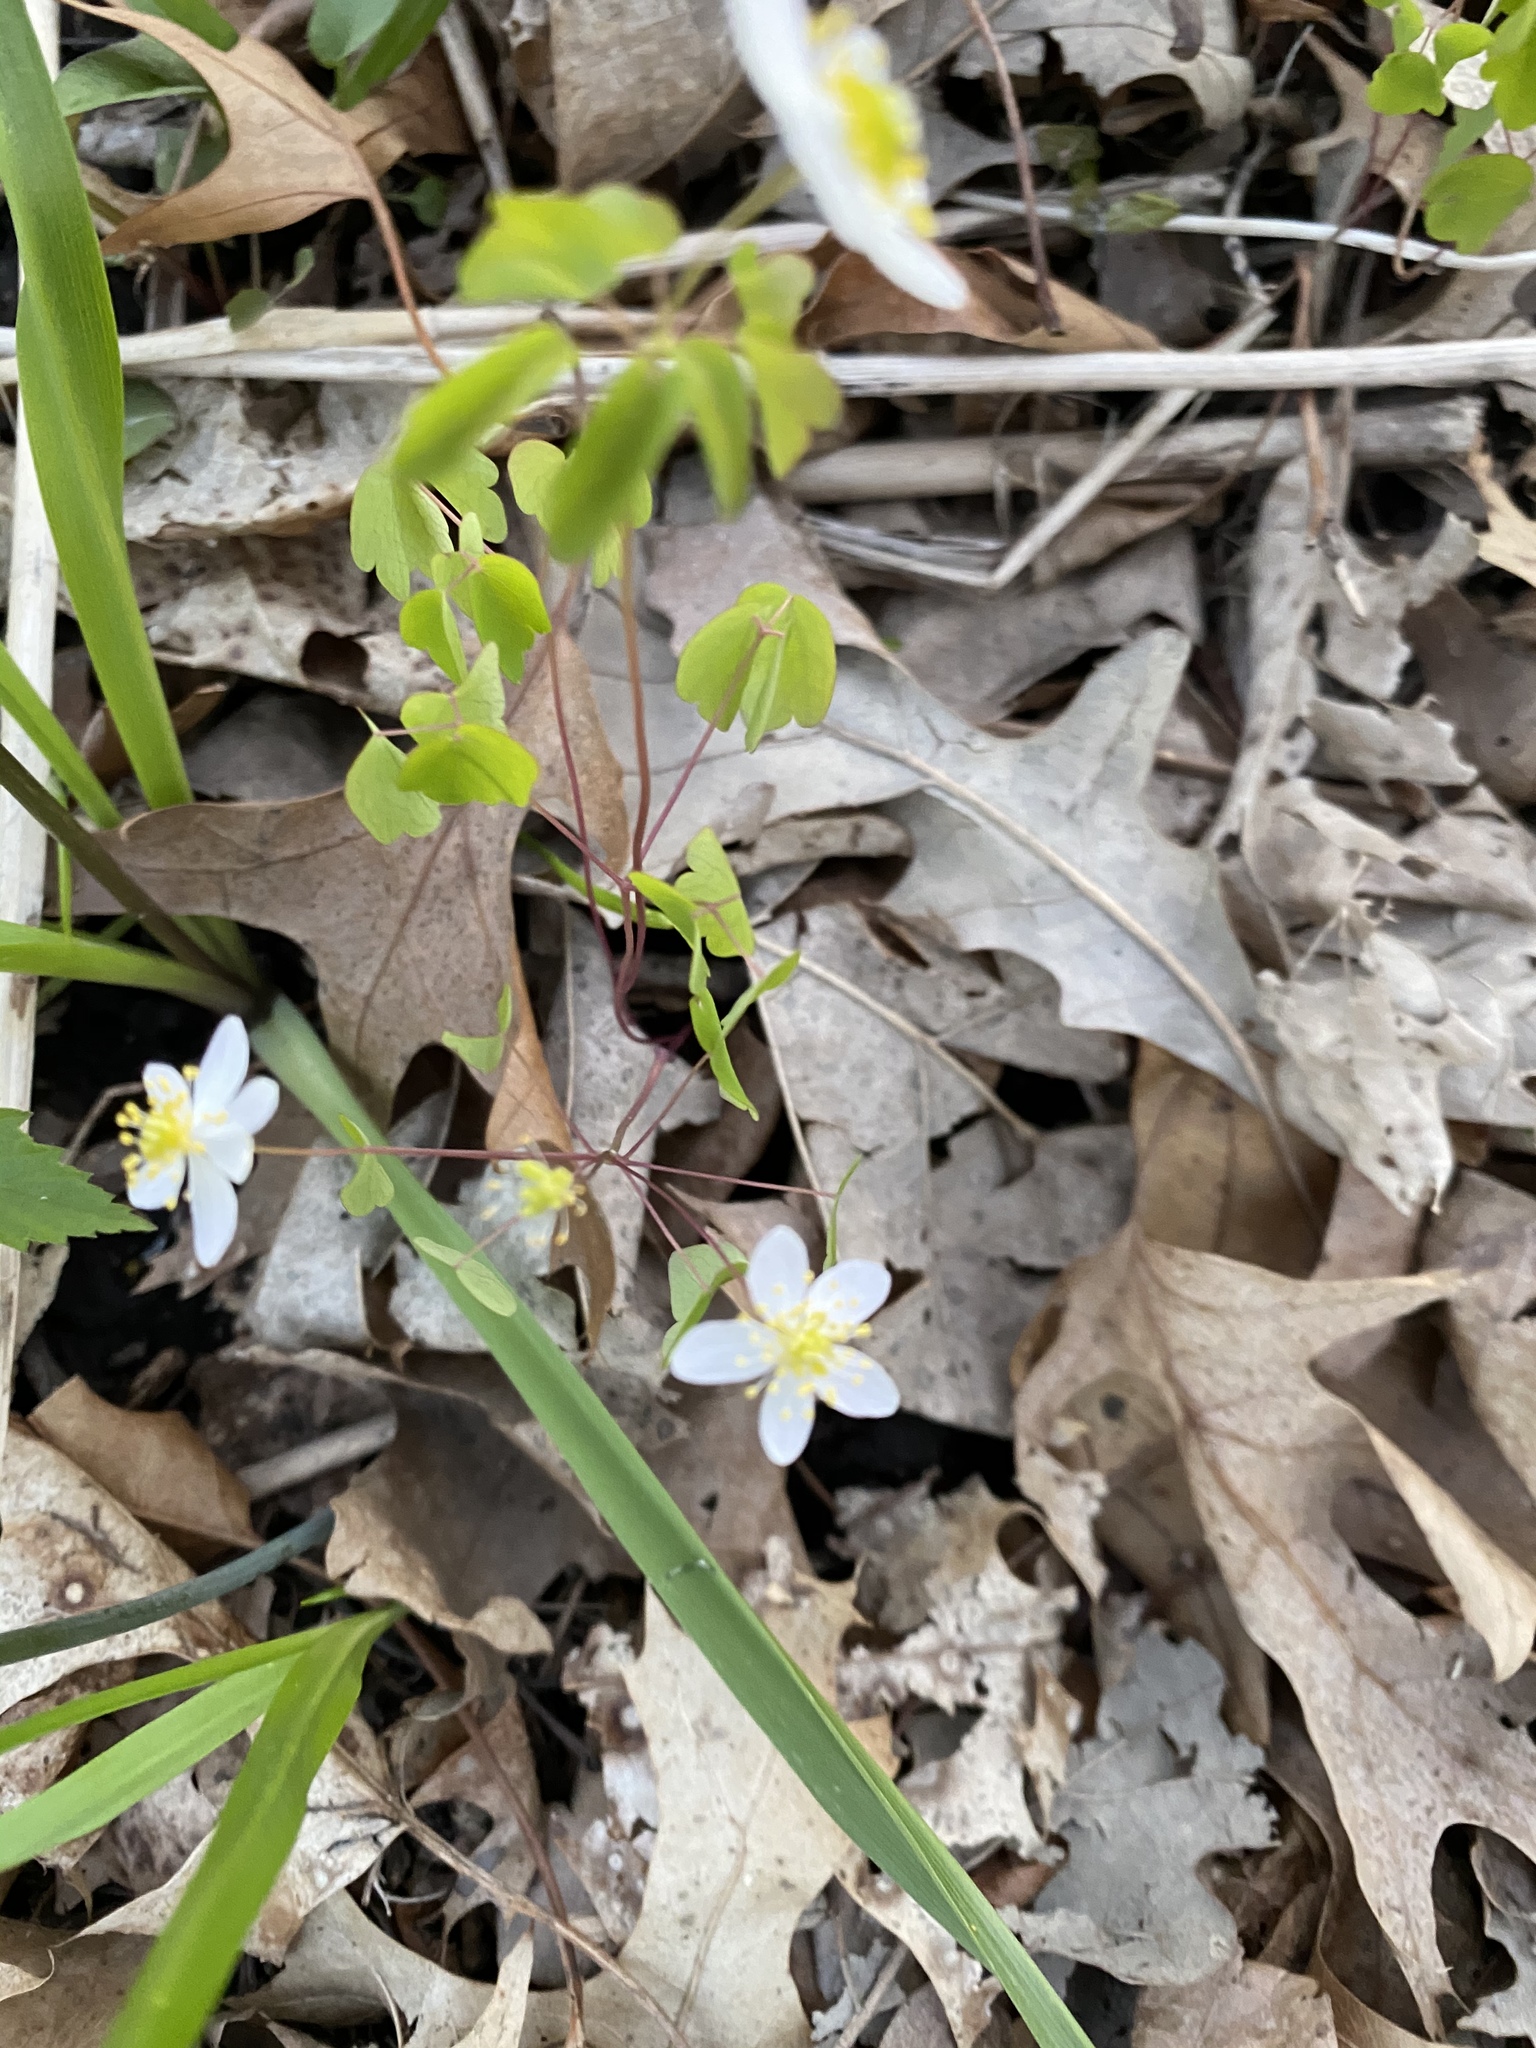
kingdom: Plantae
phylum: Tracheophyta
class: Magnoliopsida
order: Ranunculales
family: Ranunculaceae
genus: Thalictrum
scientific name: Thalictrum thalictroides
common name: Rue-anemone
